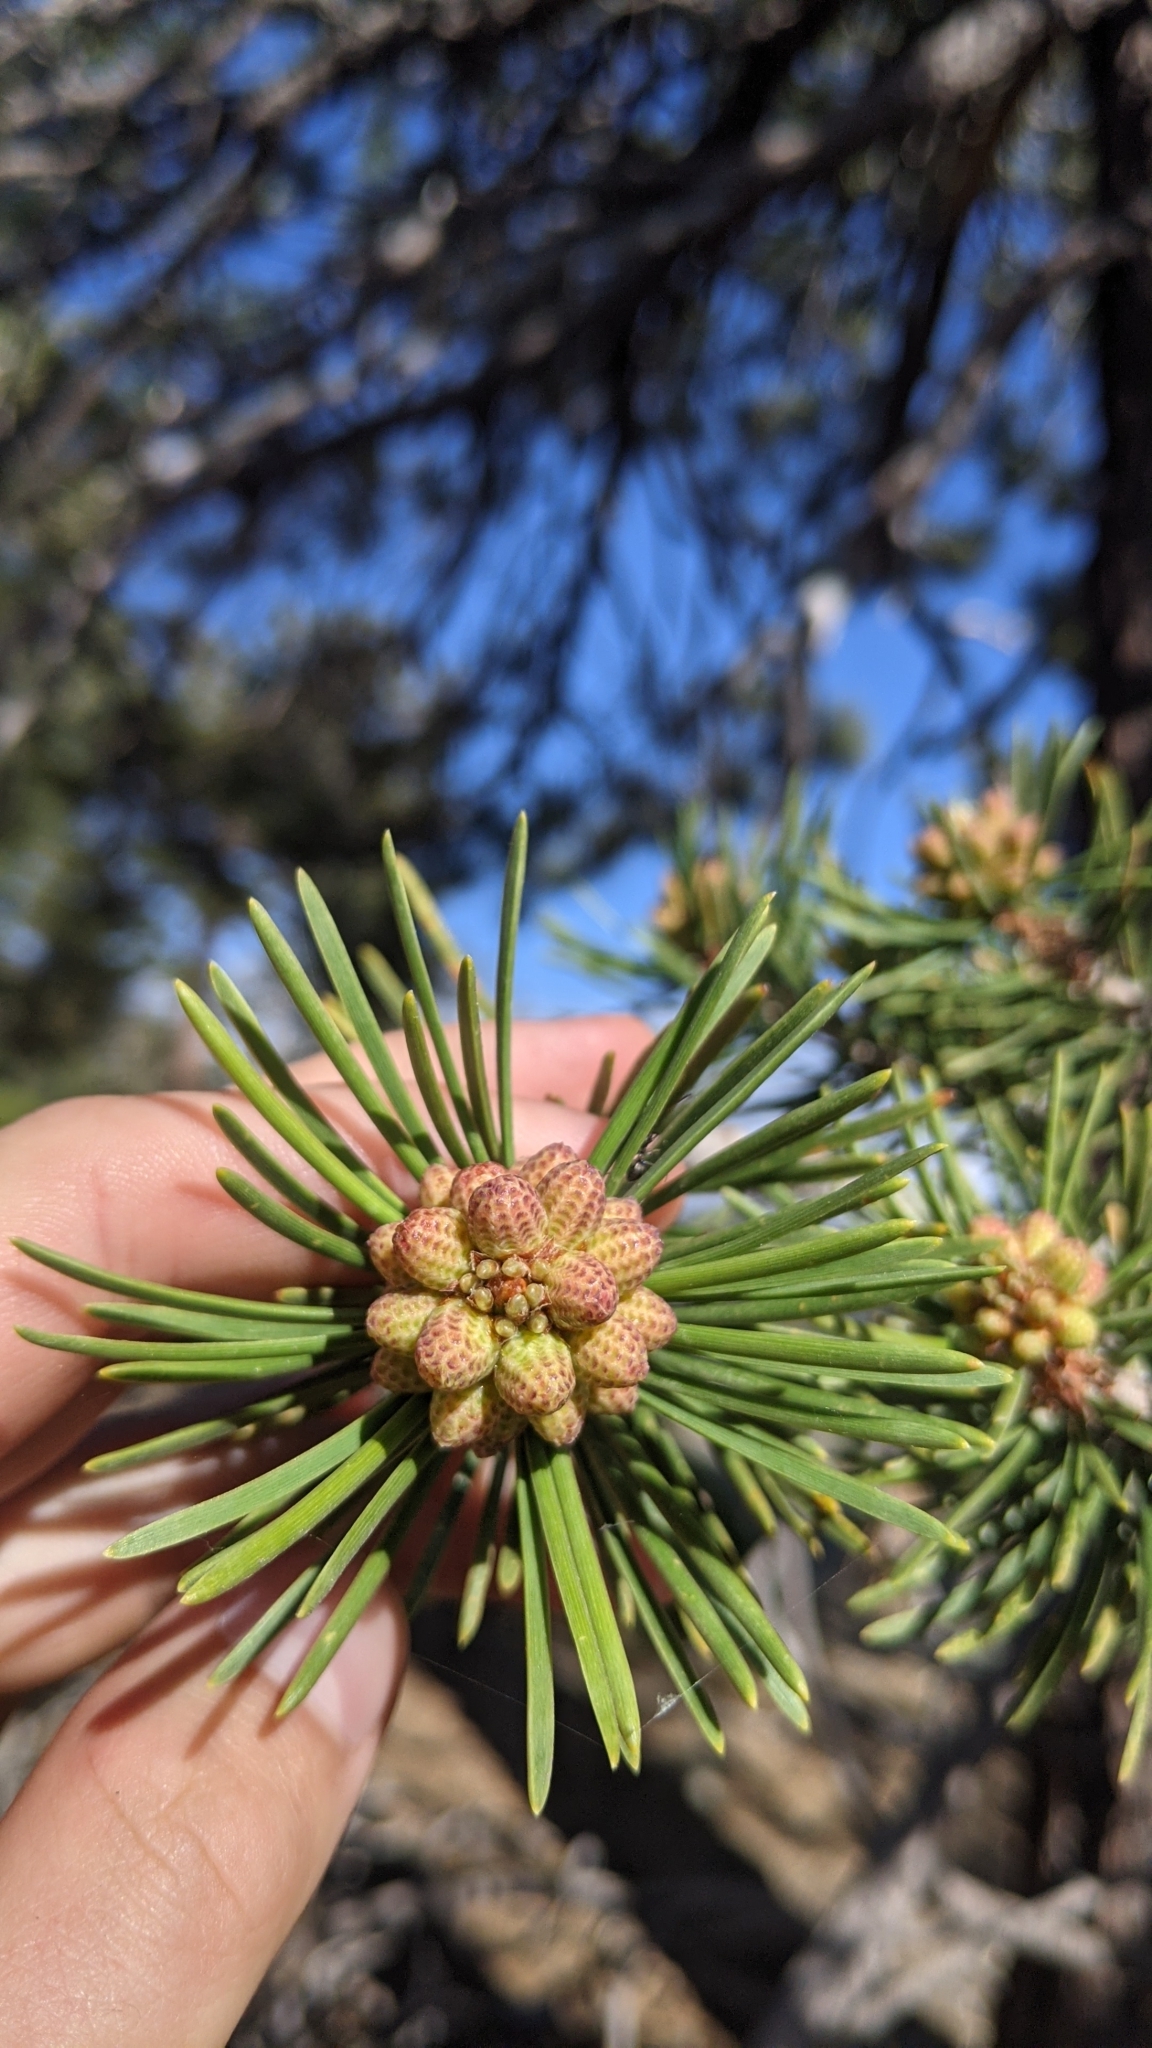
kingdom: Plantae
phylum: Tracheophyta
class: Pinopsida
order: Pinales
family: Pinaceae
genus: Pinus
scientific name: Pinus contorta
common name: Lodgepole pine
